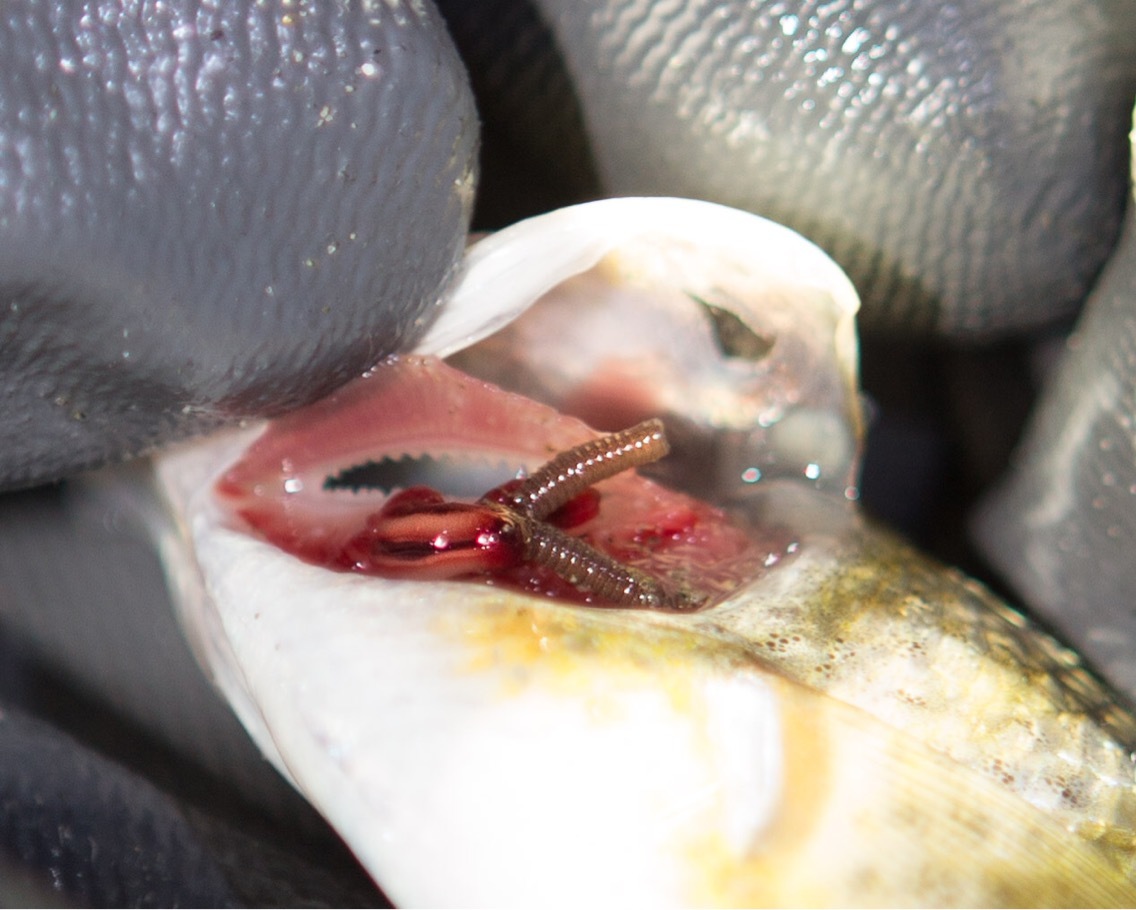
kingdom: Animalia
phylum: Arthropoda
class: Copepoda
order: Siphonostomatoida
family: Pennellidae
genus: Haemobaphes
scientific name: Haemobaphes diceraus
